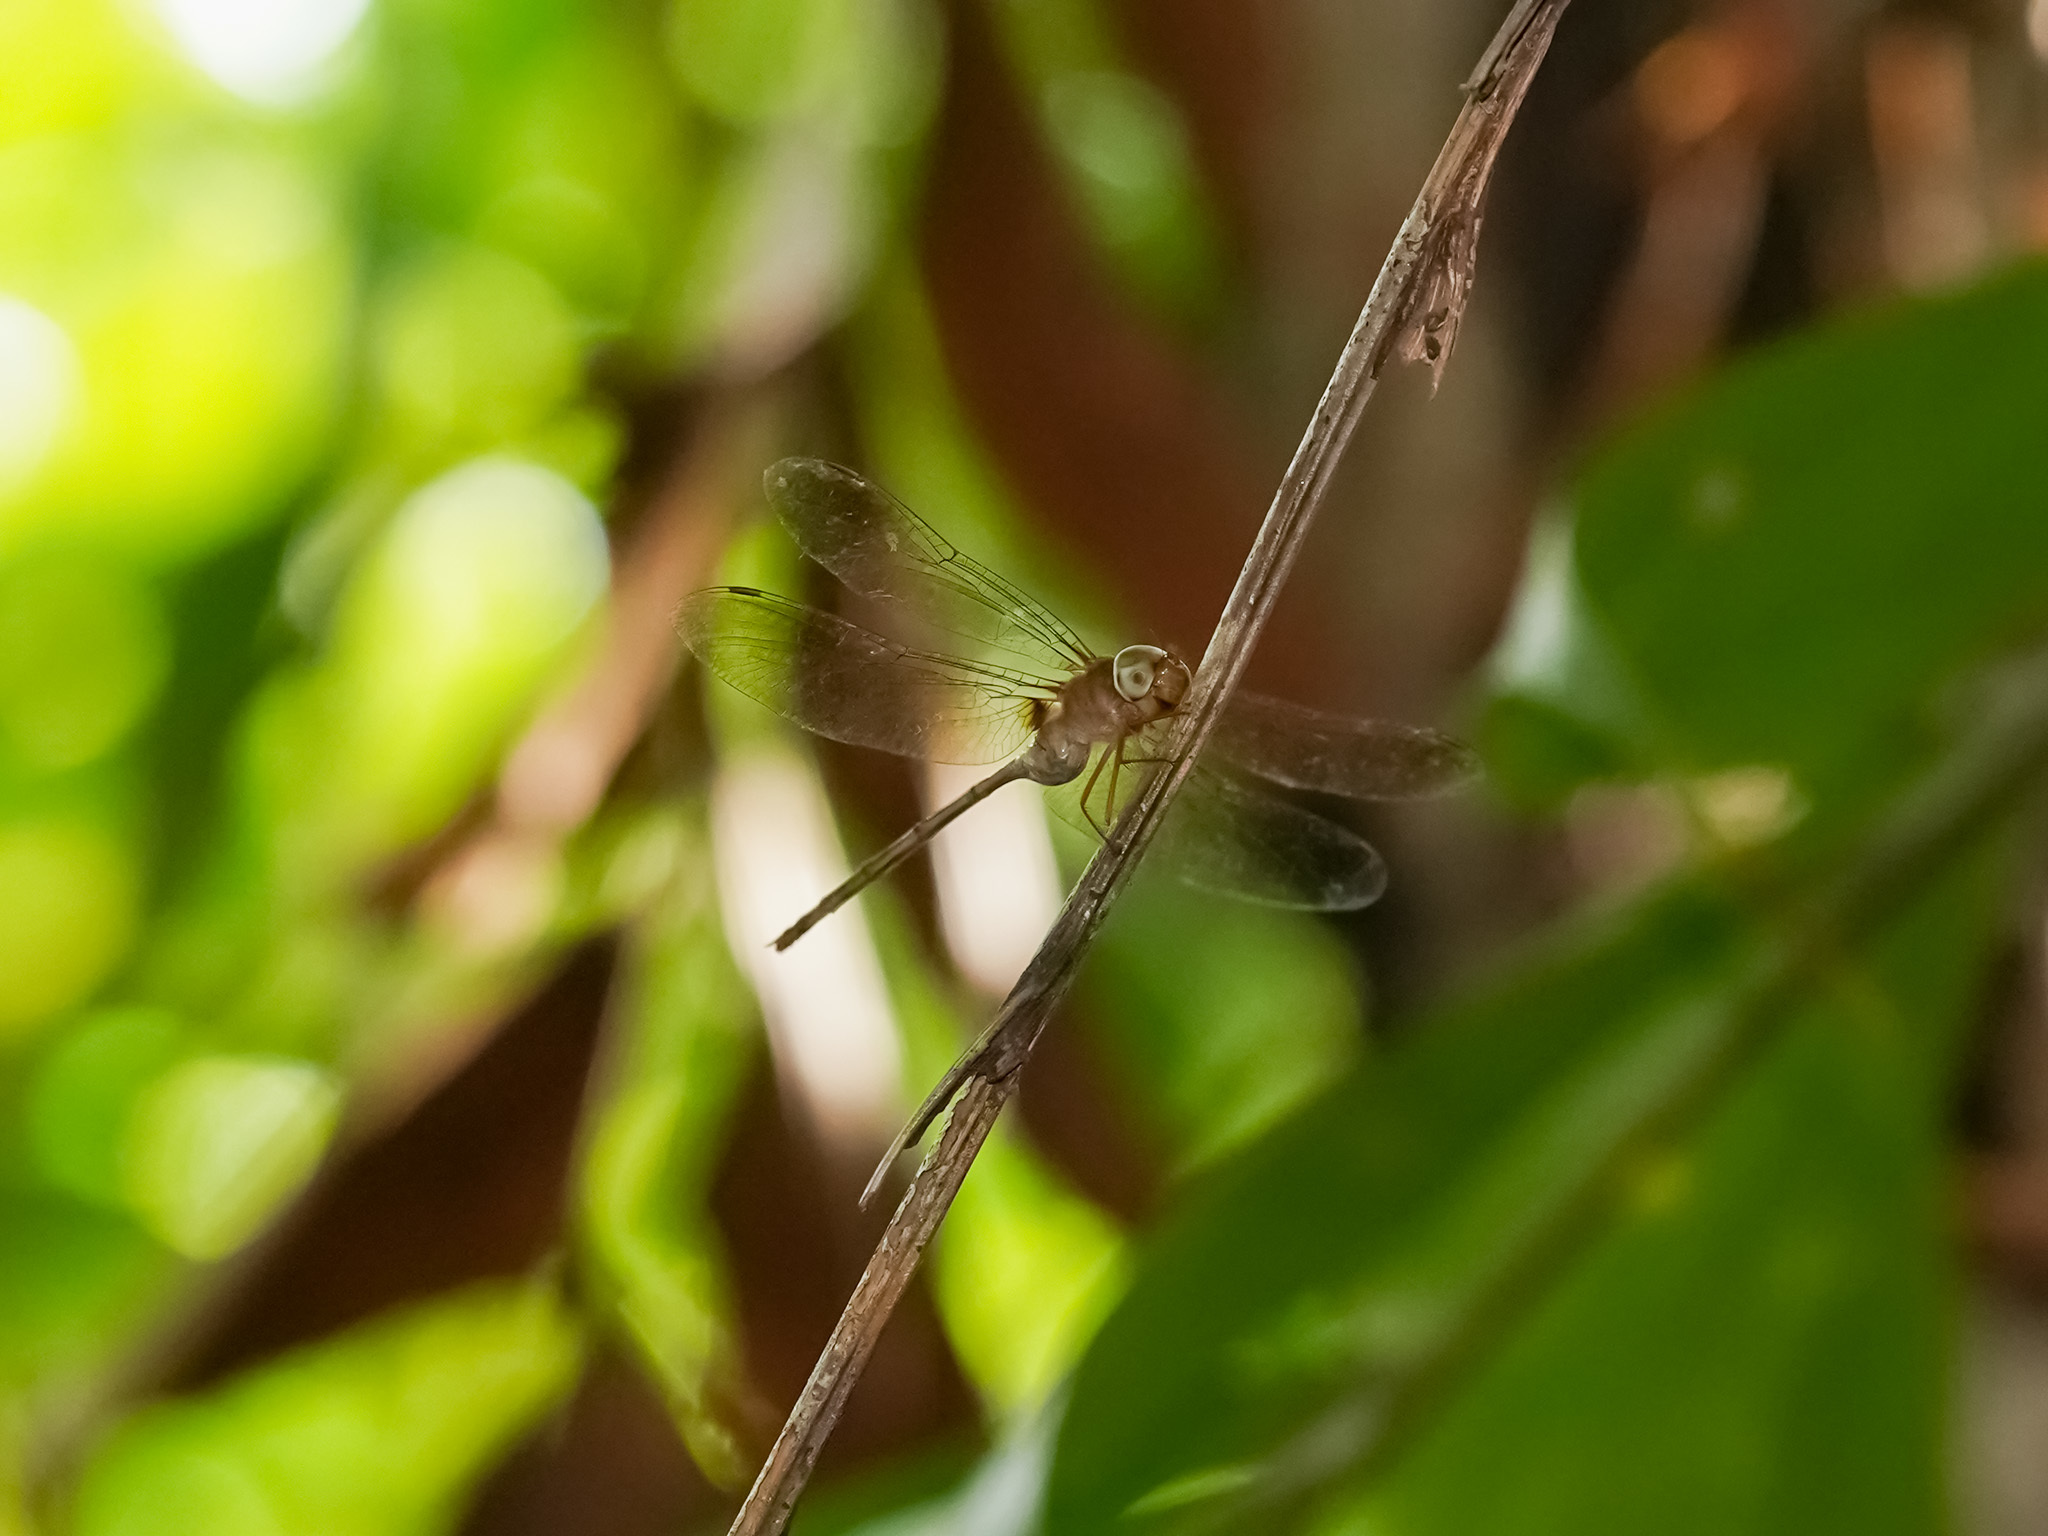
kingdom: Animalia
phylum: Arthropoda
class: Insecta
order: Odonata
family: Libellulidae
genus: Zyxomma
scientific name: Zyxomma petiolatum
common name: Dingy dusk-darter
